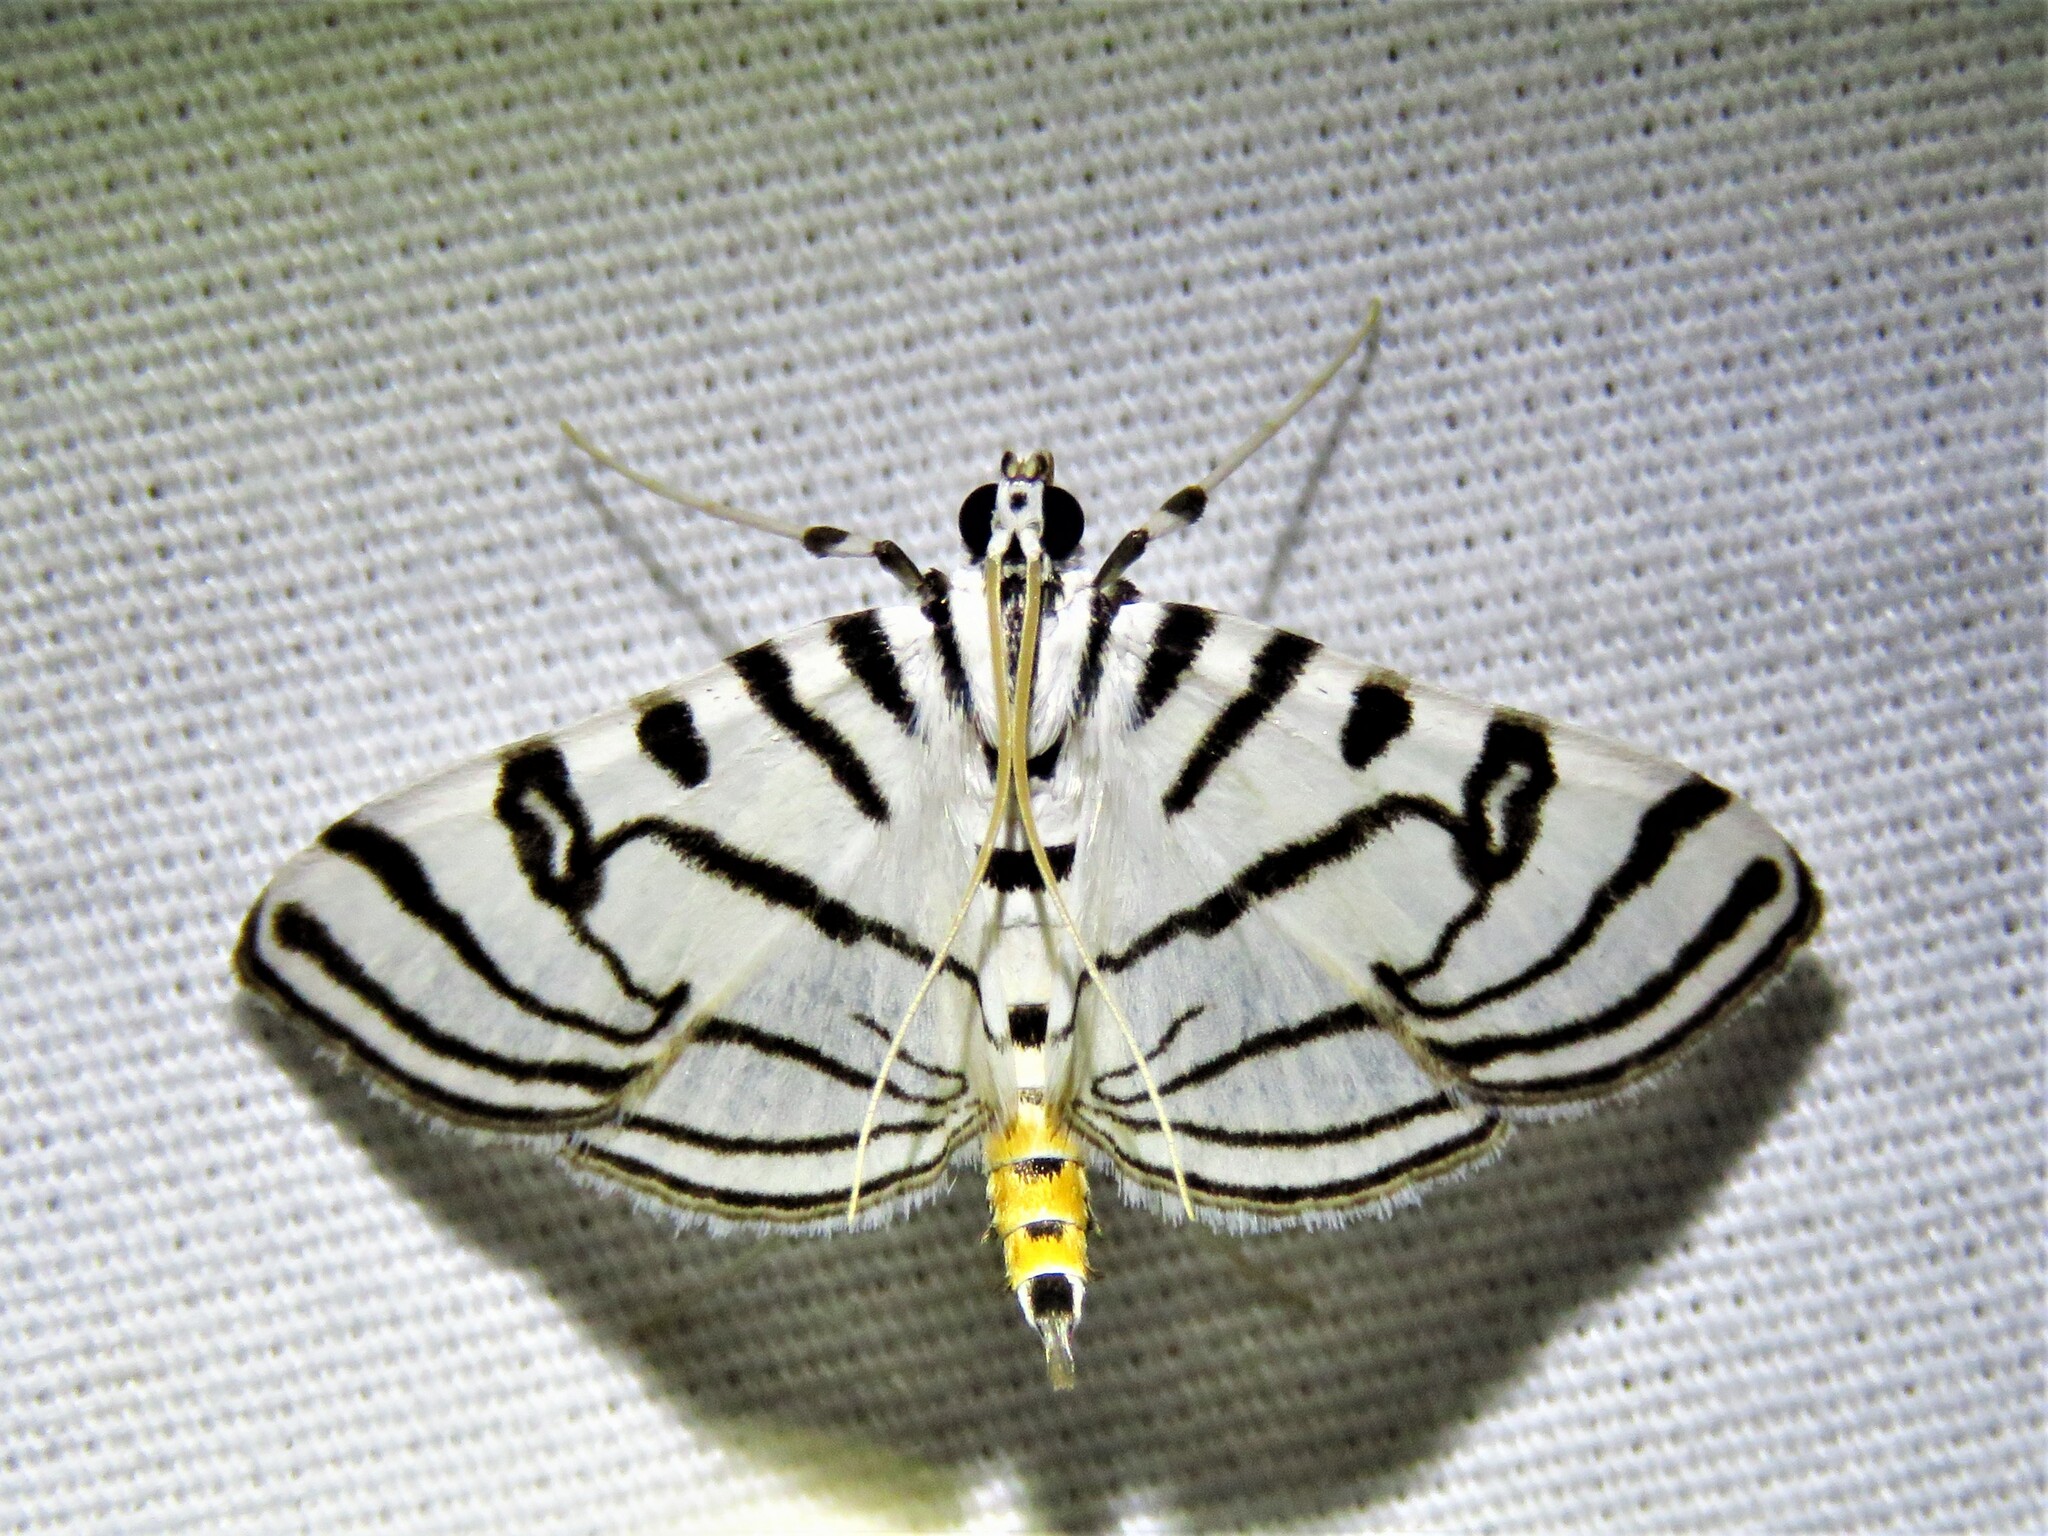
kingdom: Animalia
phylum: Arthropoda
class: Insecta
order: Lepidoptera
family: Crambidae
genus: Conchylodes
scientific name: Conchylodes ovulalis
